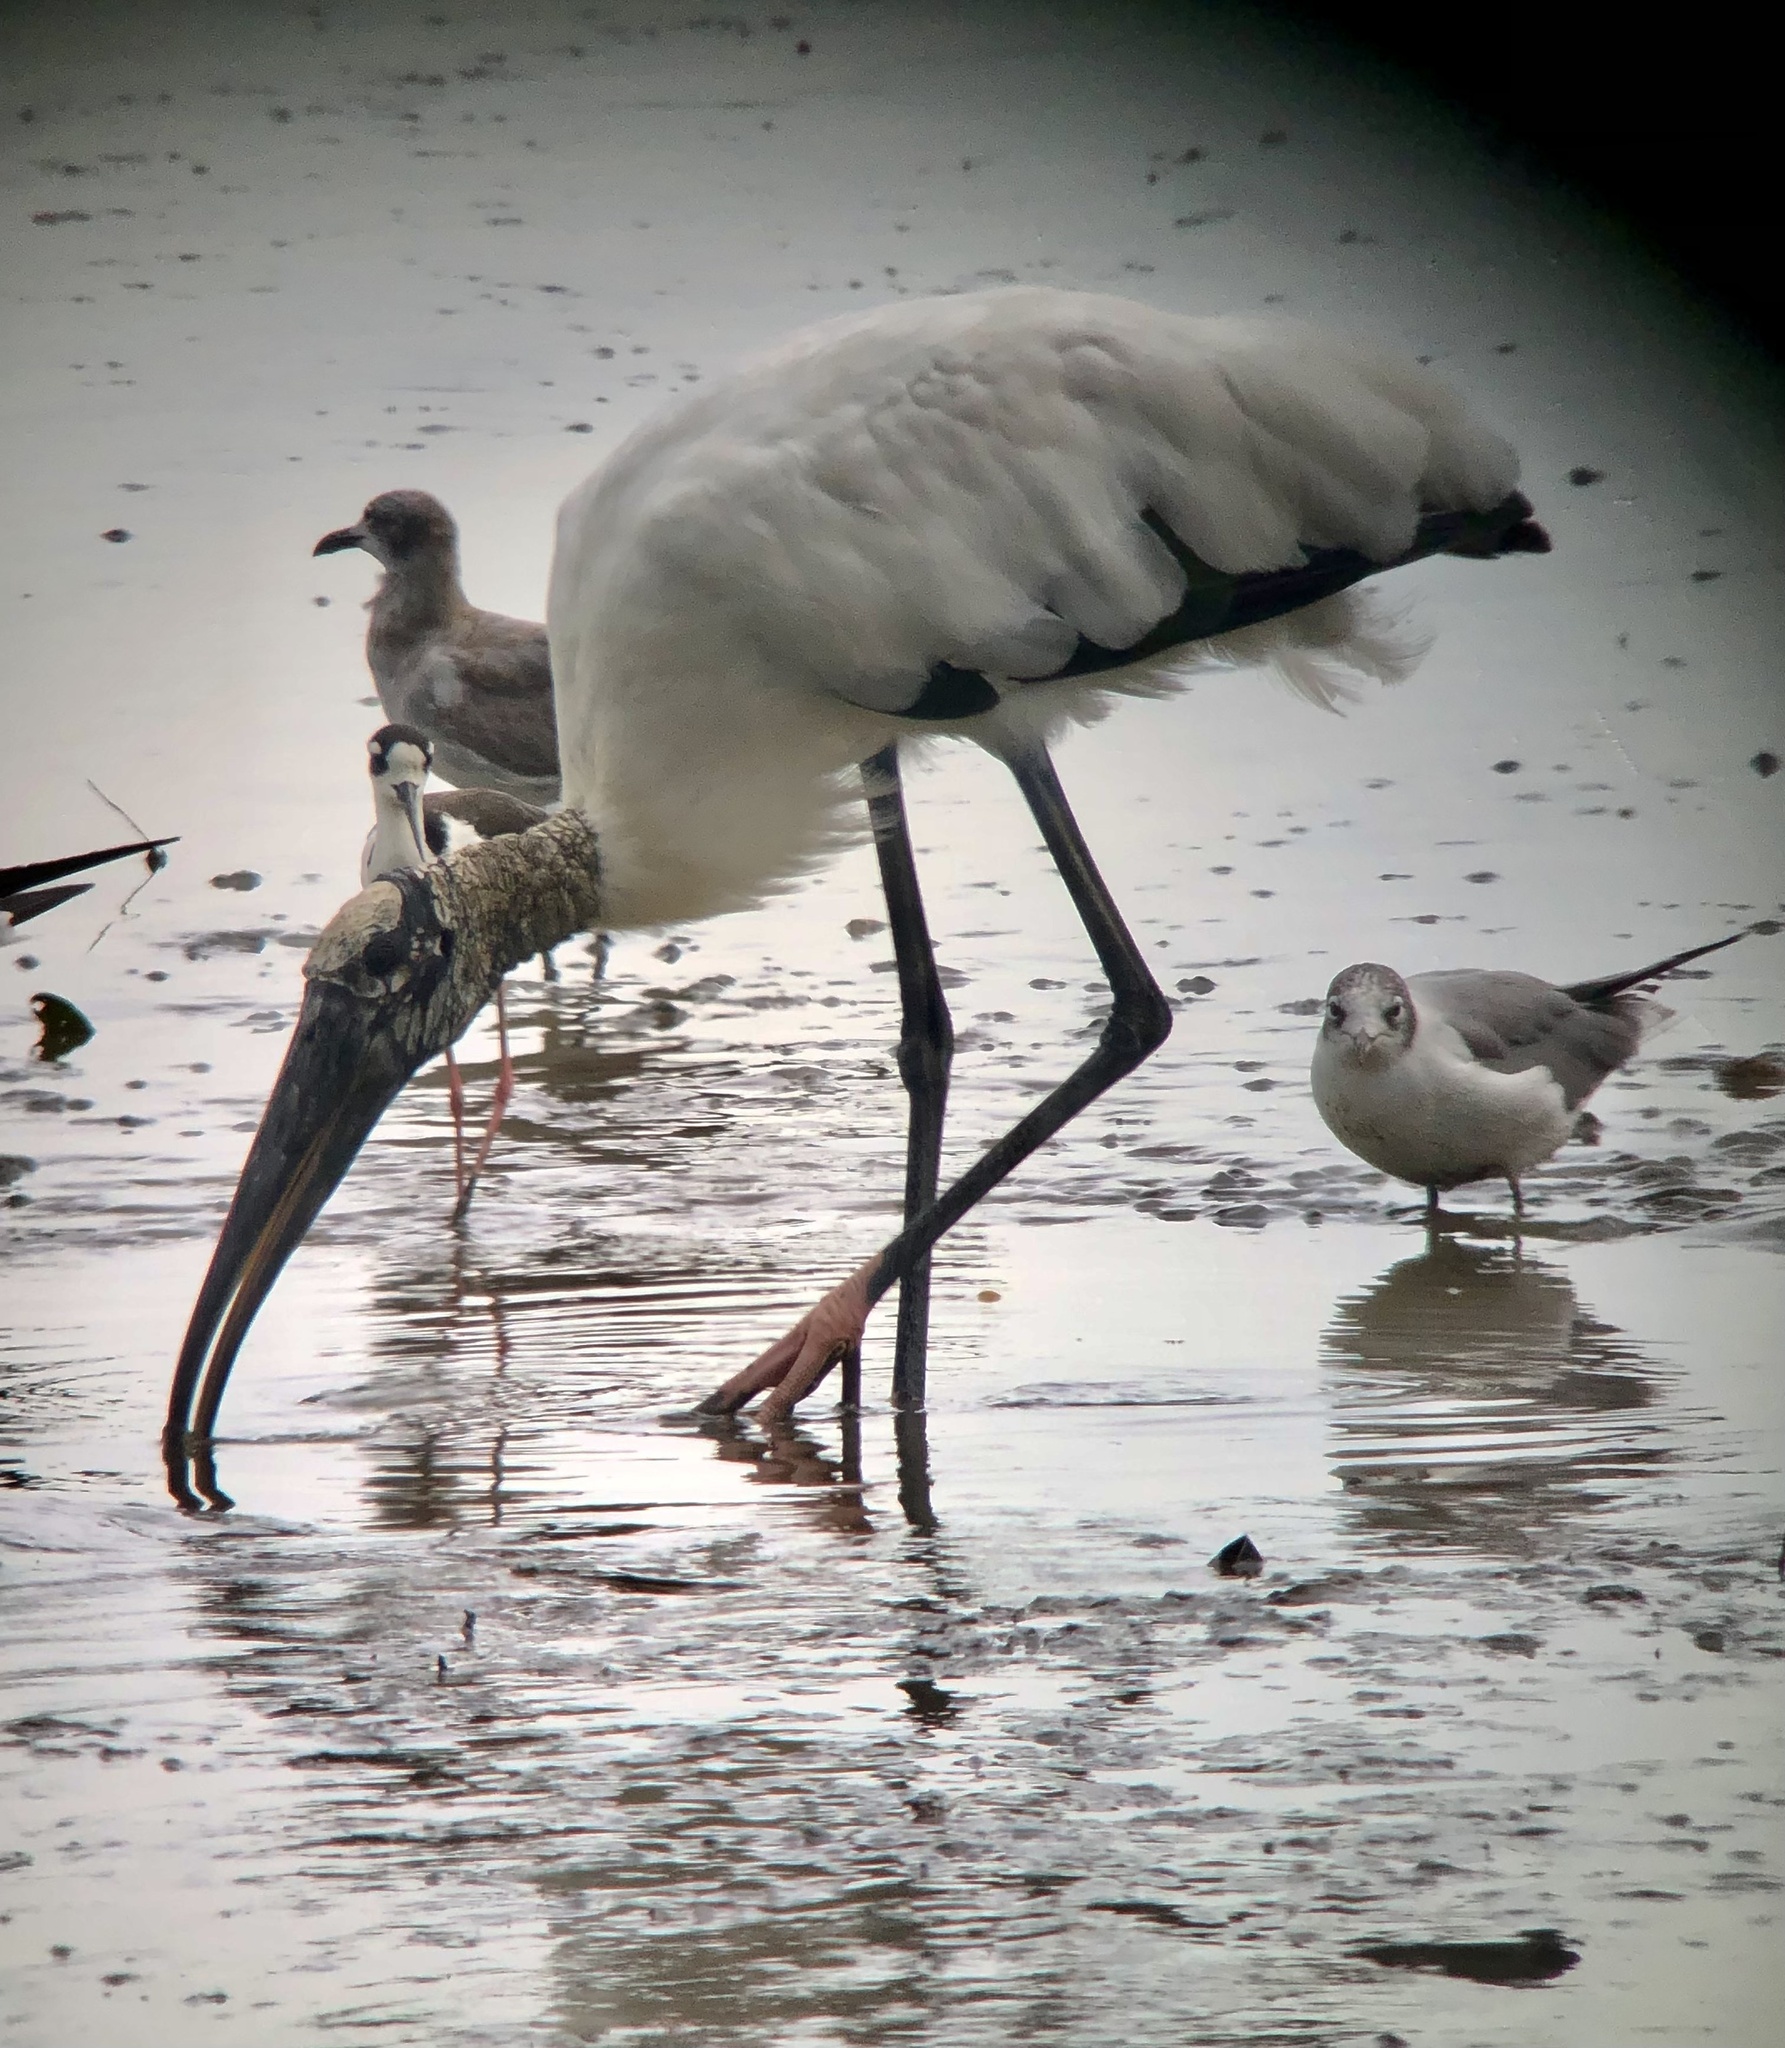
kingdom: Animalia
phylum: Chordata
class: Aves
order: Ciconiiformes
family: Ciconiidae
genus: Mycteria
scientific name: Mycteria americana
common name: Wood stork
